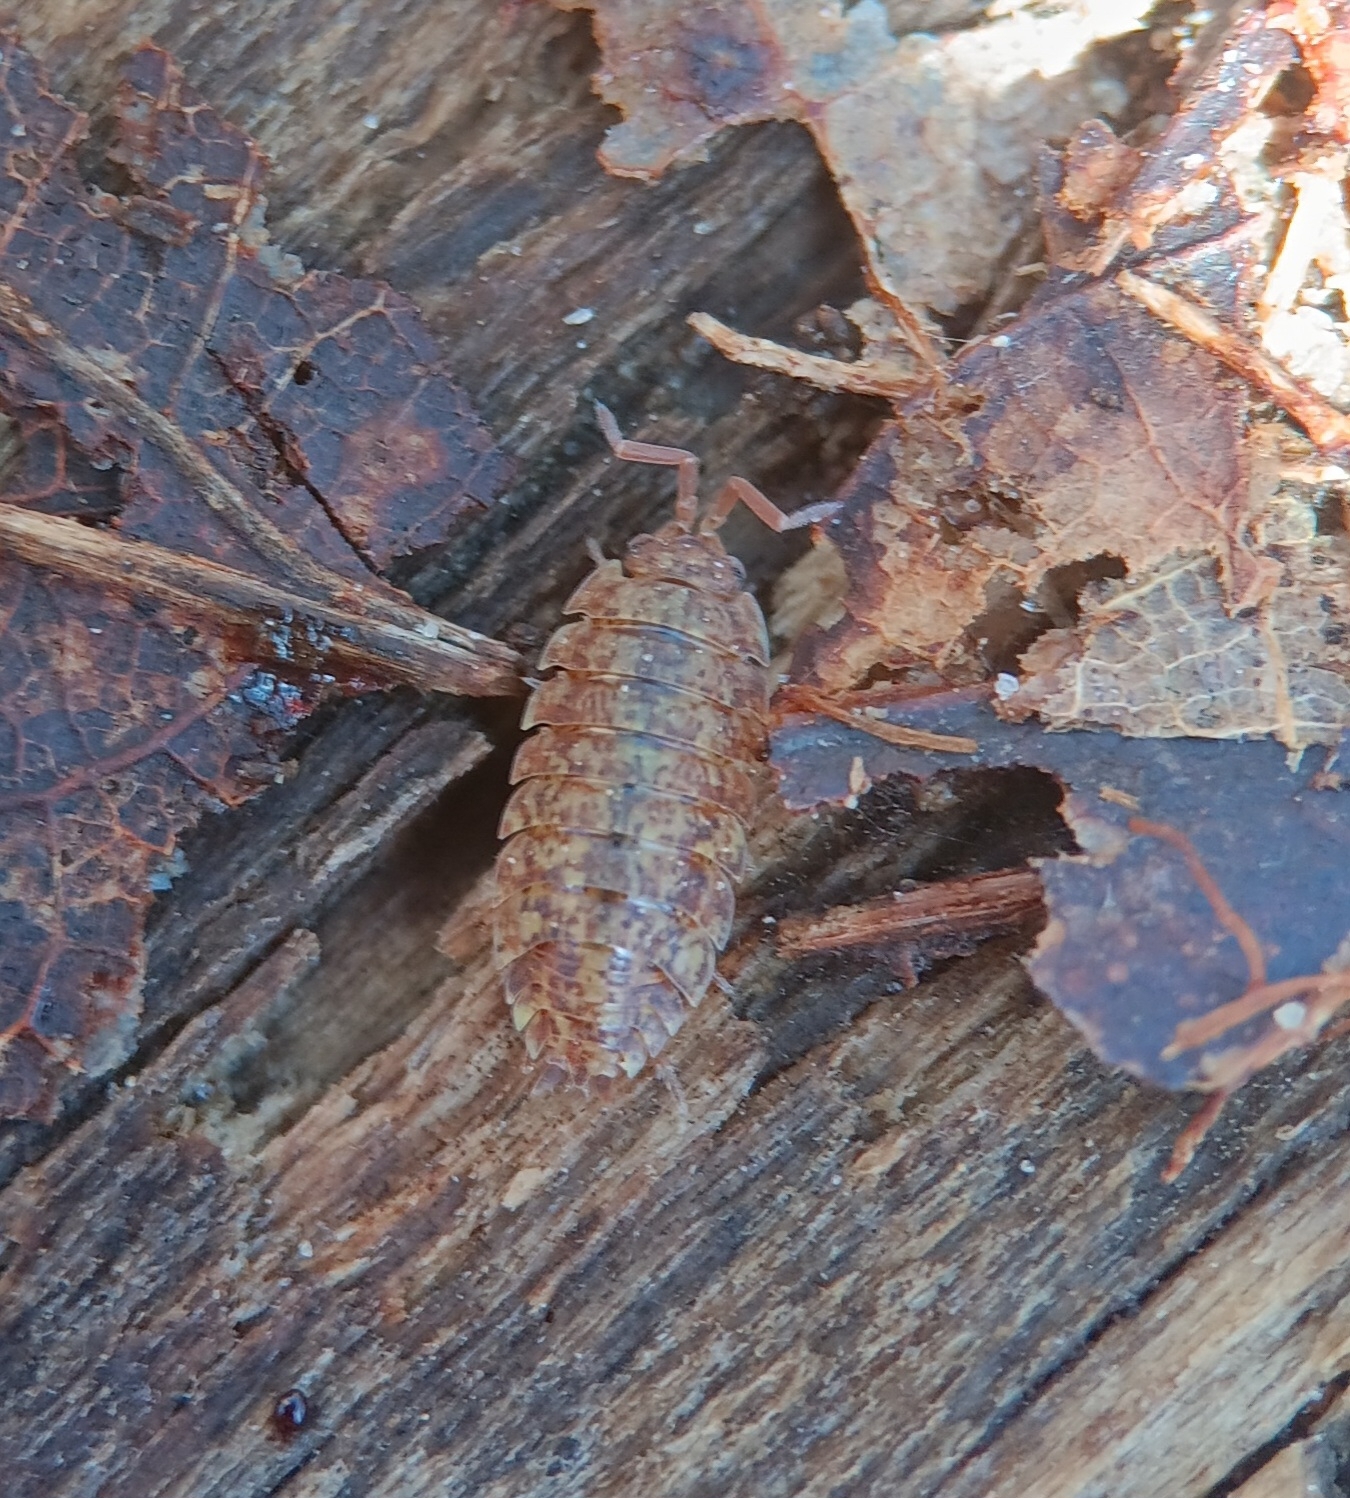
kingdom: Animalia
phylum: Arthropoda
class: Malacostraca
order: Isopoda
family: Porcellionidae
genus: Porcellio
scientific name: Porcellio scaber
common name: Common rough woodlouse
